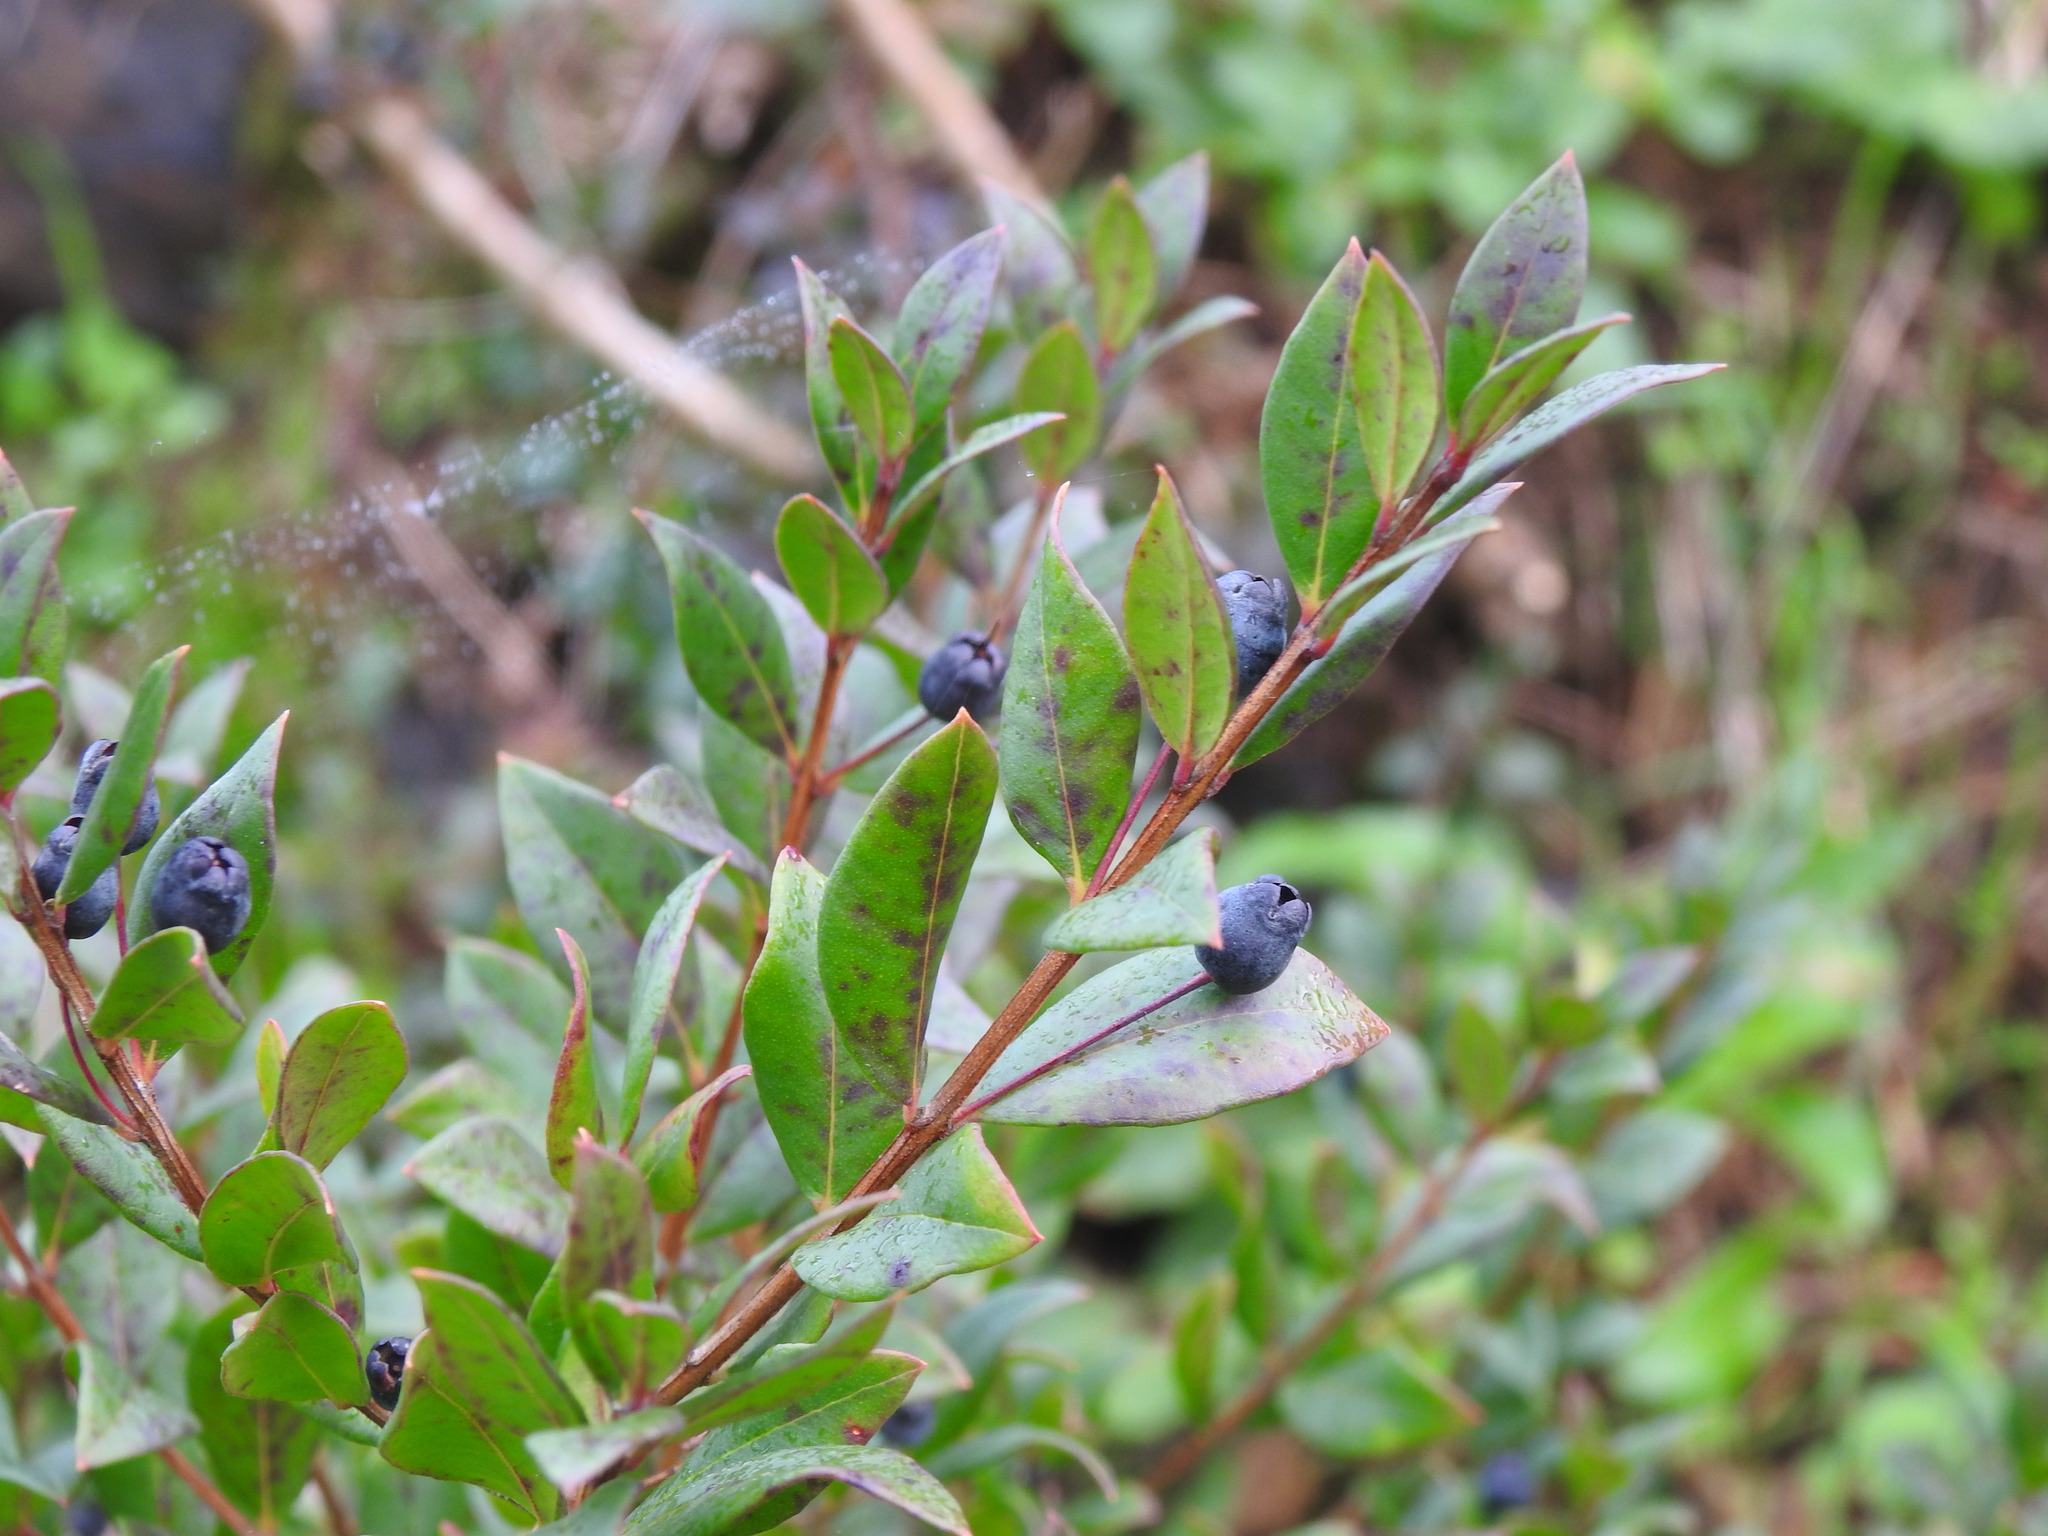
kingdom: Plantae
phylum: Tracheophyta
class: Magnoliopsida
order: Myrtales
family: Myrtaceae
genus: Myrtus
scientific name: Myrtus communis
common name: Myrtle
